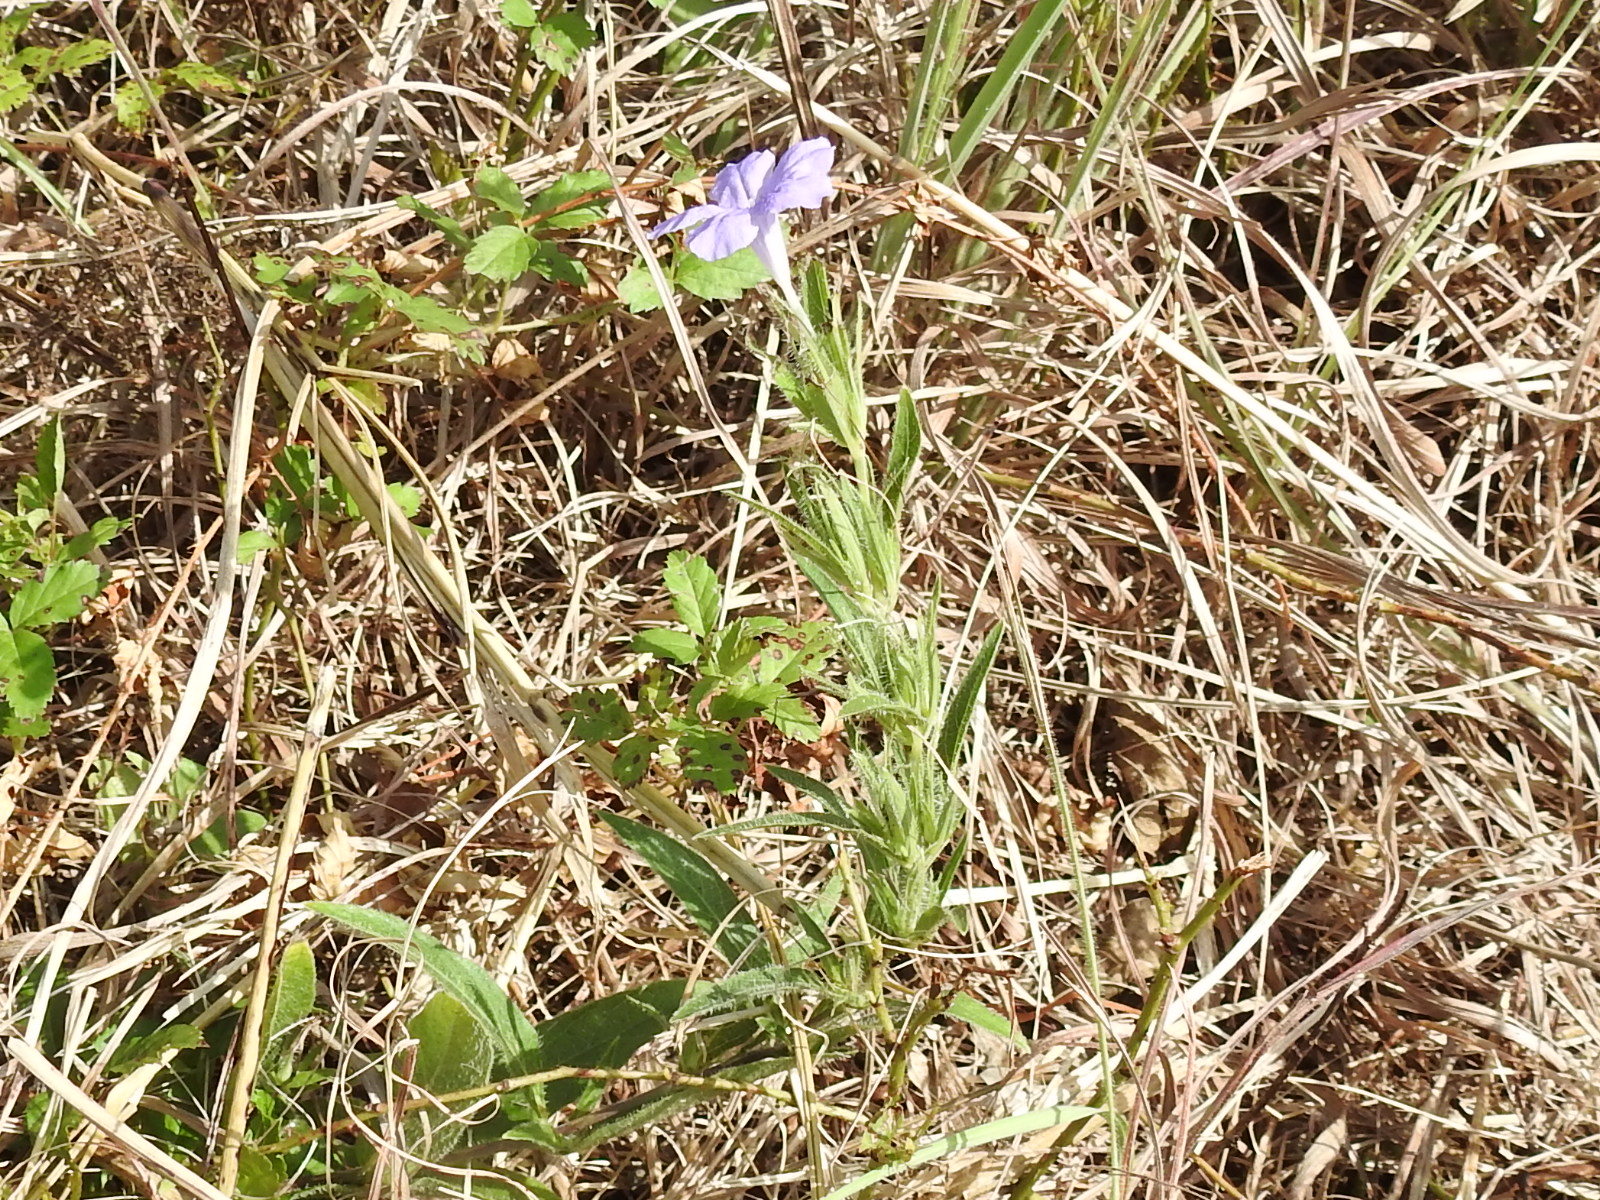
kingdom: Plantae
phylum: Tracheophyta
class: Magnoliopsida
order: Lamiales
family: Acanthaceae
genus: Ruellia
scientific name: Ruellia humilis
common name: Fringe-leaf ruellia
